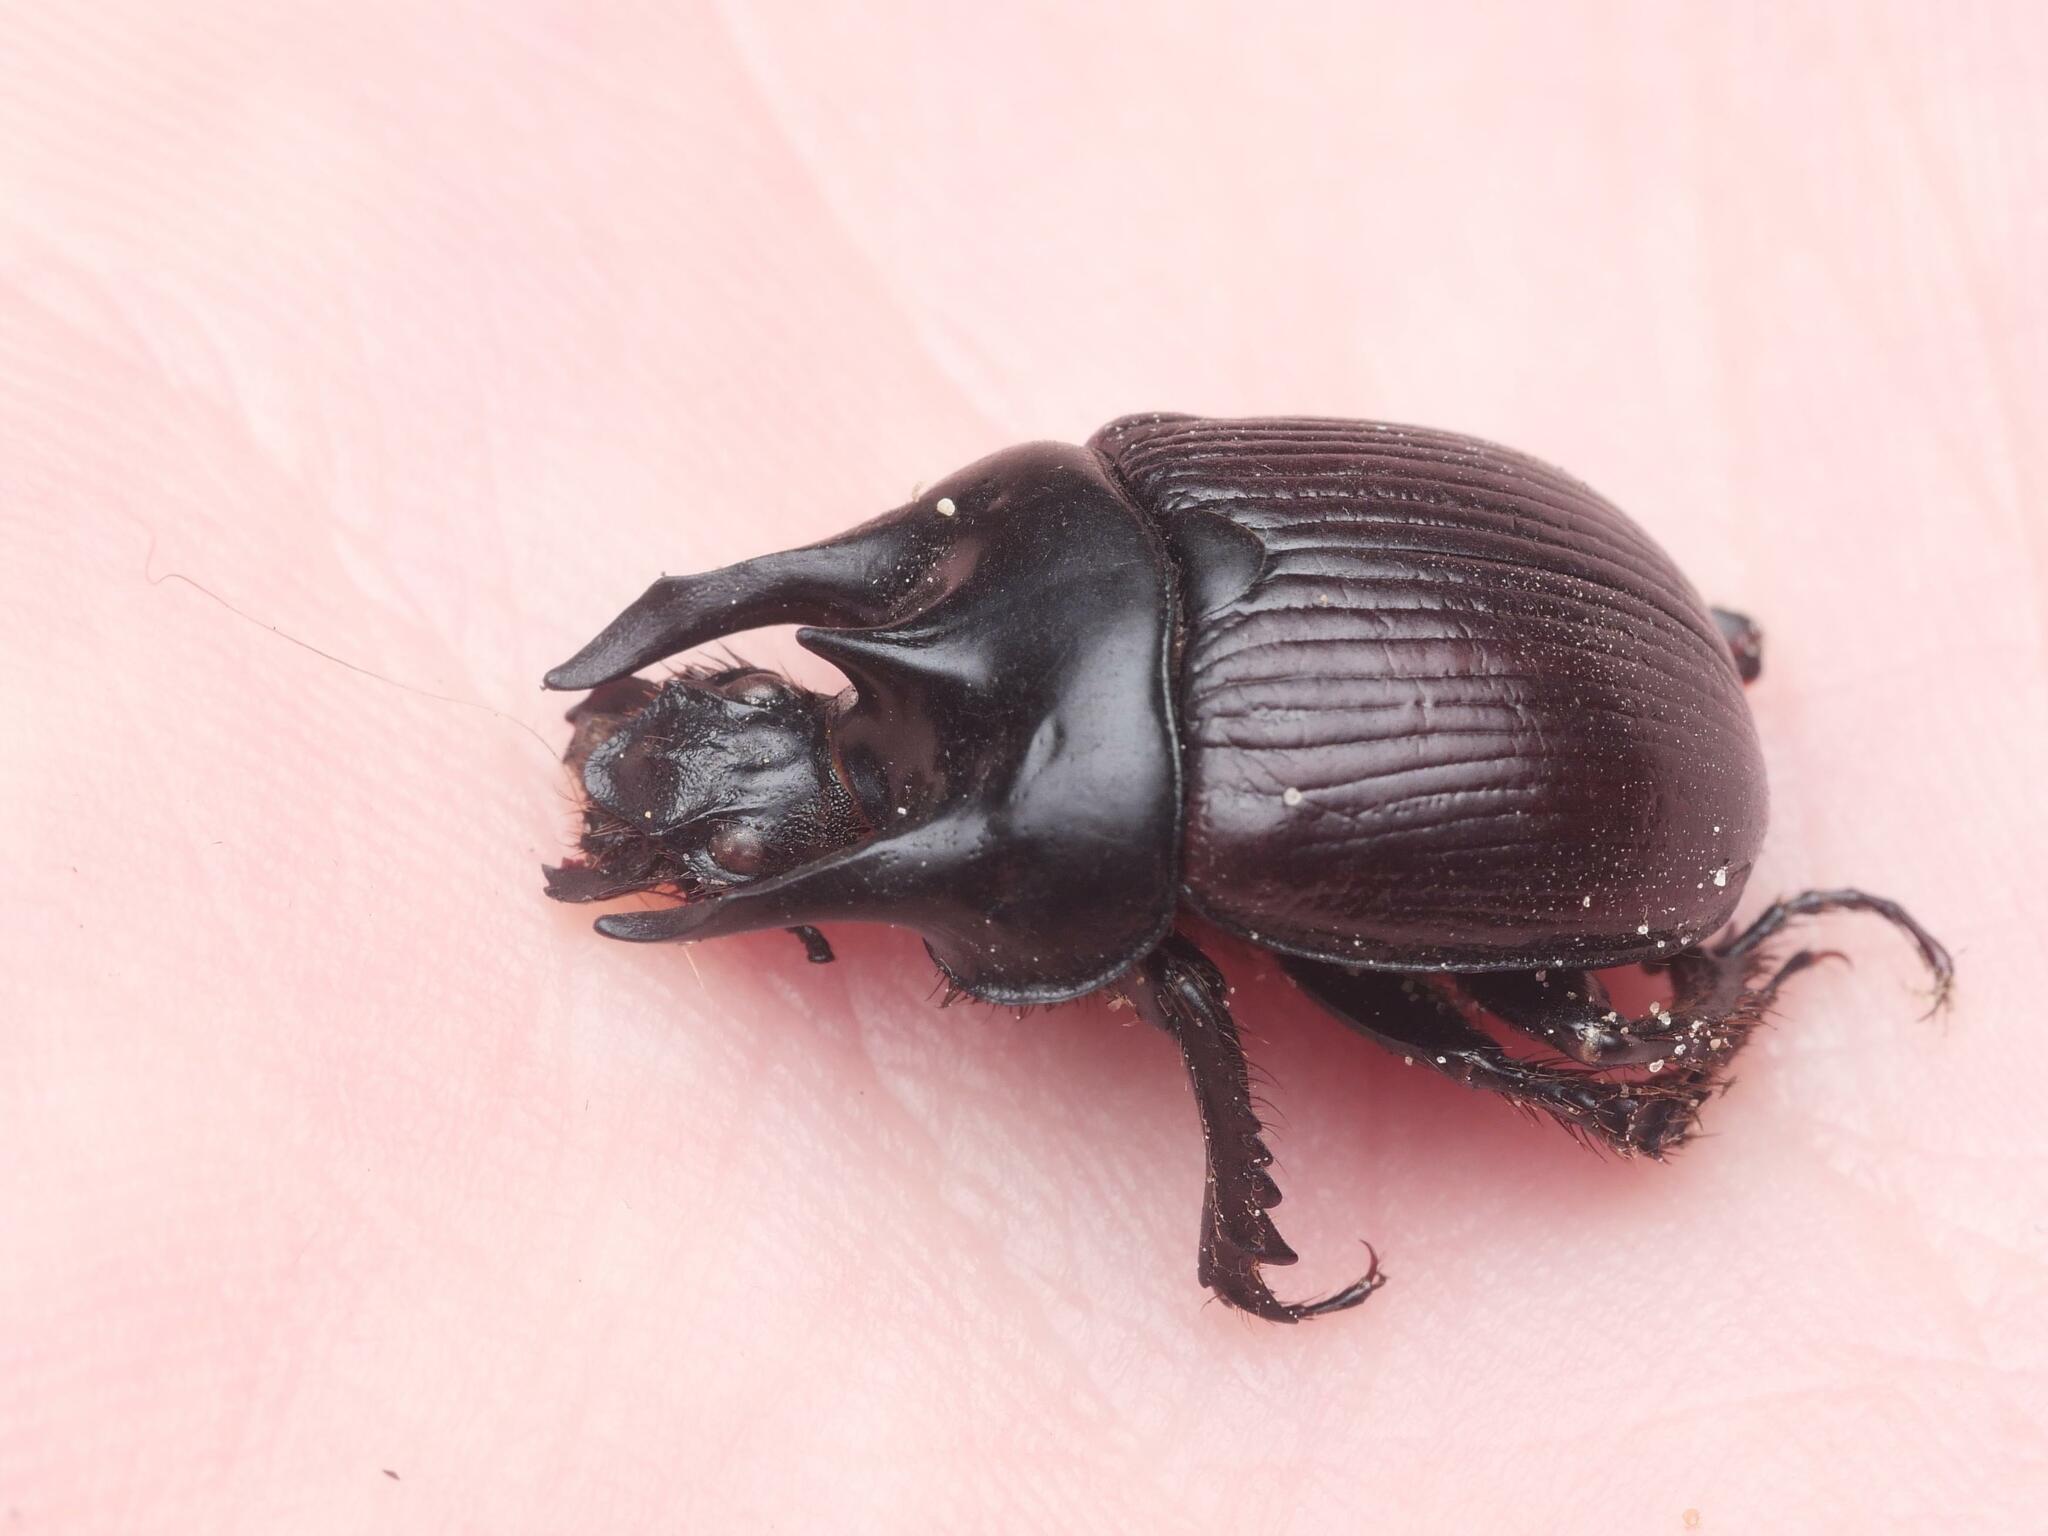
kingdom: Animalia
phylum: Arthropoda
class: Insecta
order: Coleoptera
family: Geotrupidae
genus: Typhaeus
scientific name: Typhaeus typhoeus
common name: Minotaur beetle
